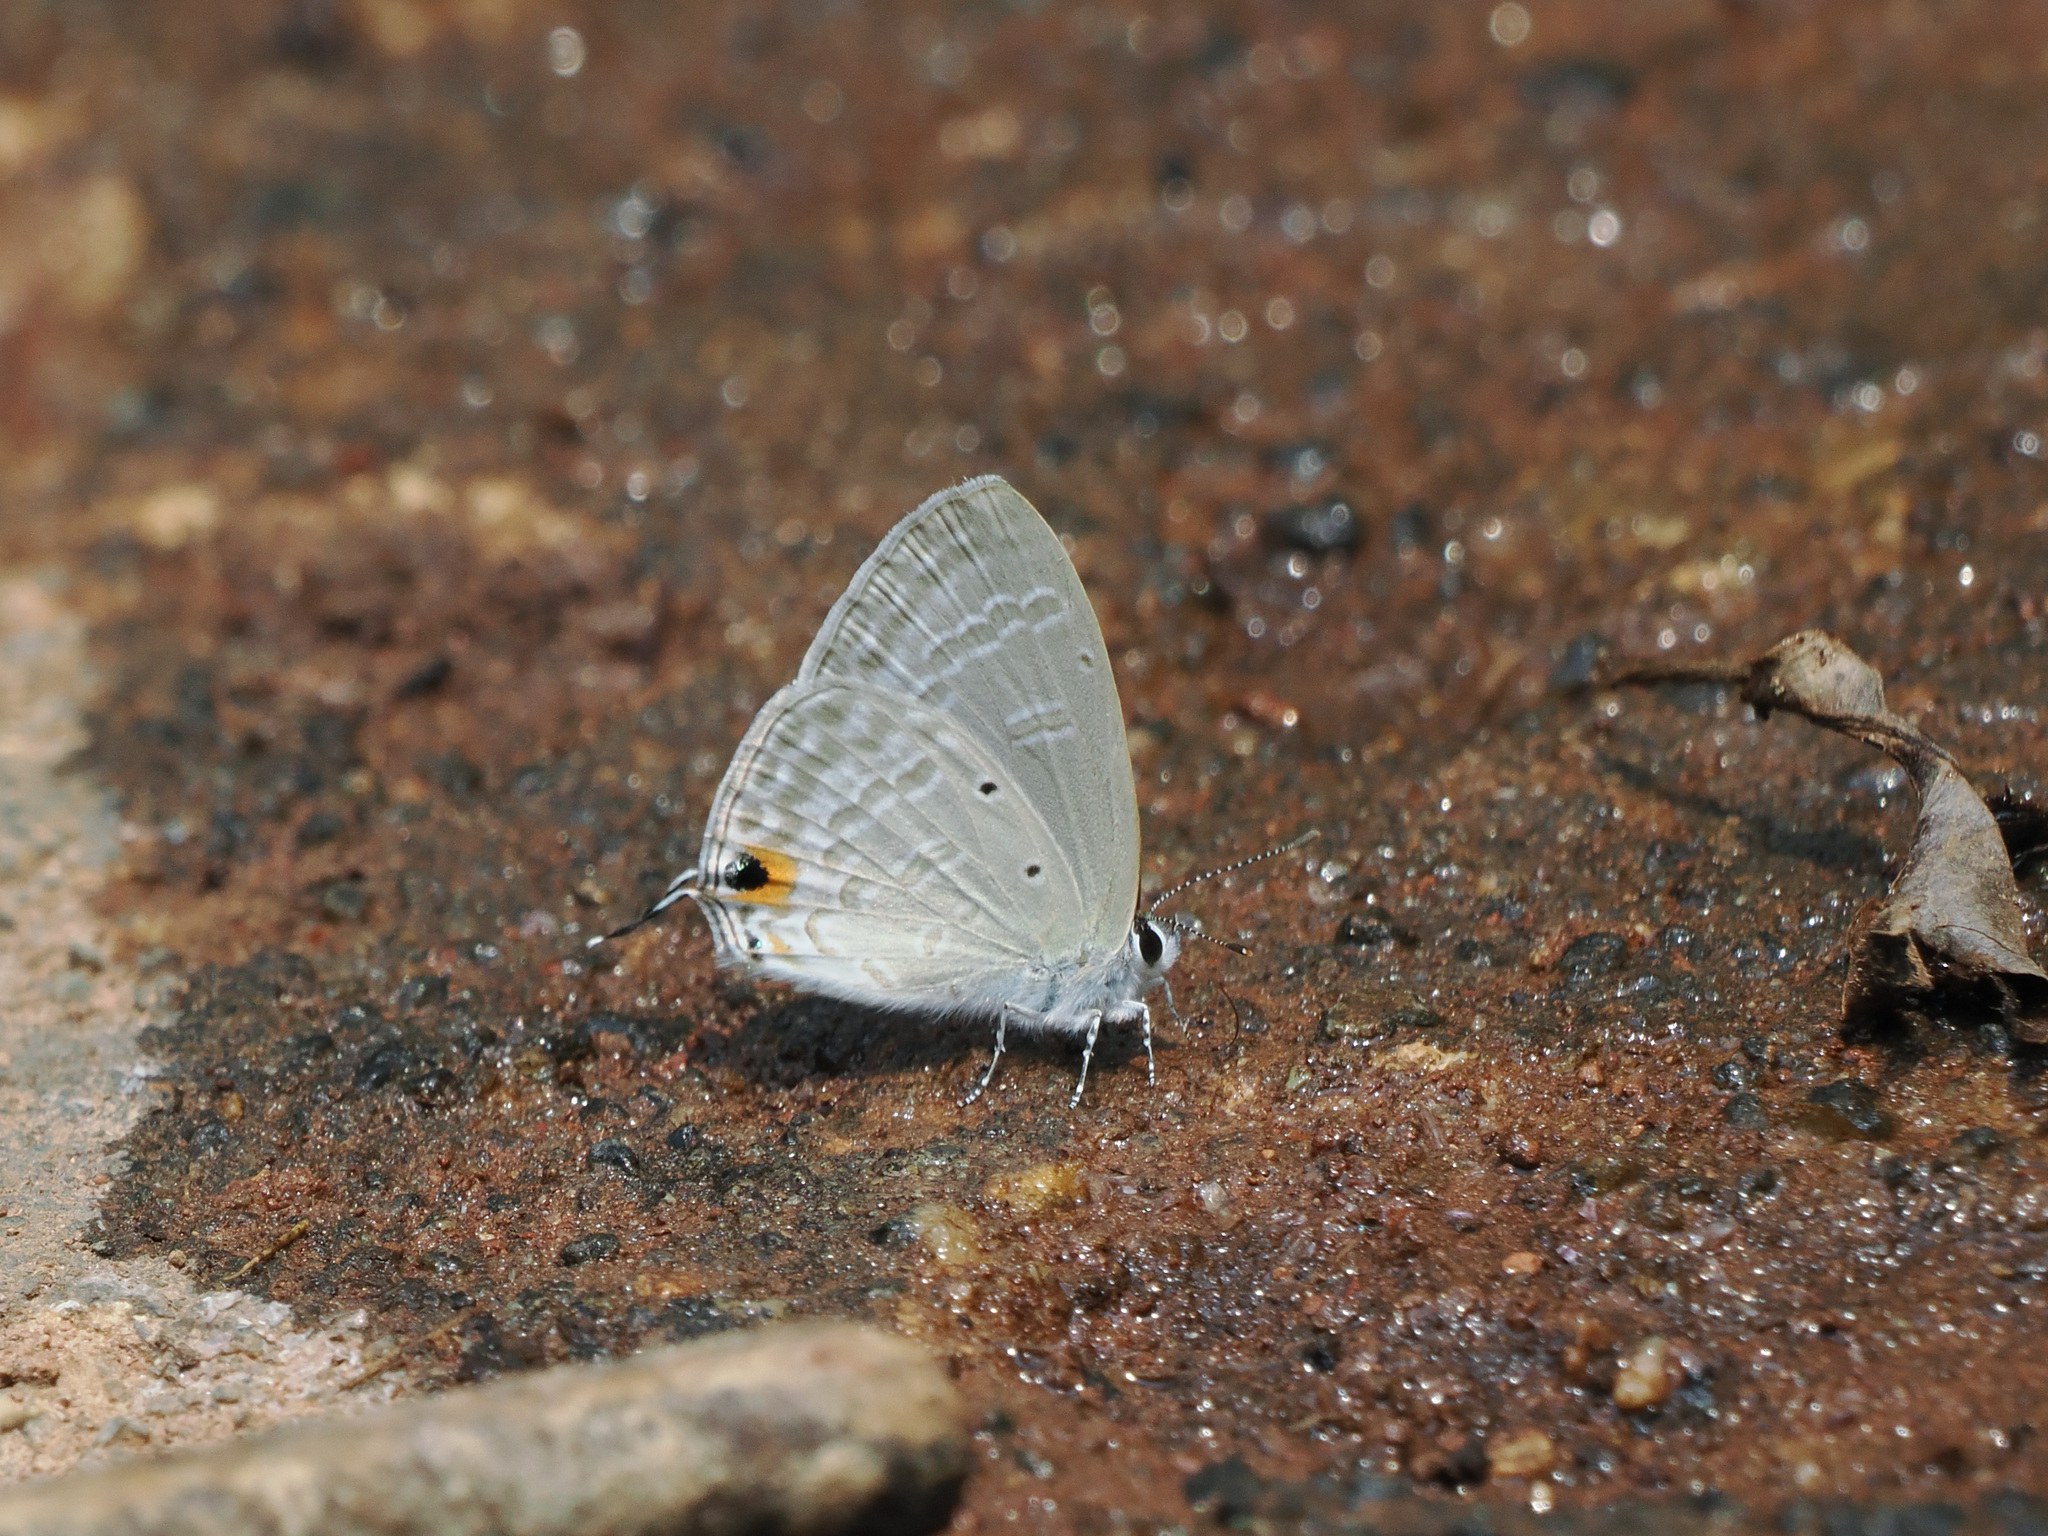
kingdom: Animalia
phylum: Arthropoda
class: Insecta
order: Lepidoptera
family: Lycaenidae
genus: Catochrysops
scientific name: Catochrysops strabo
